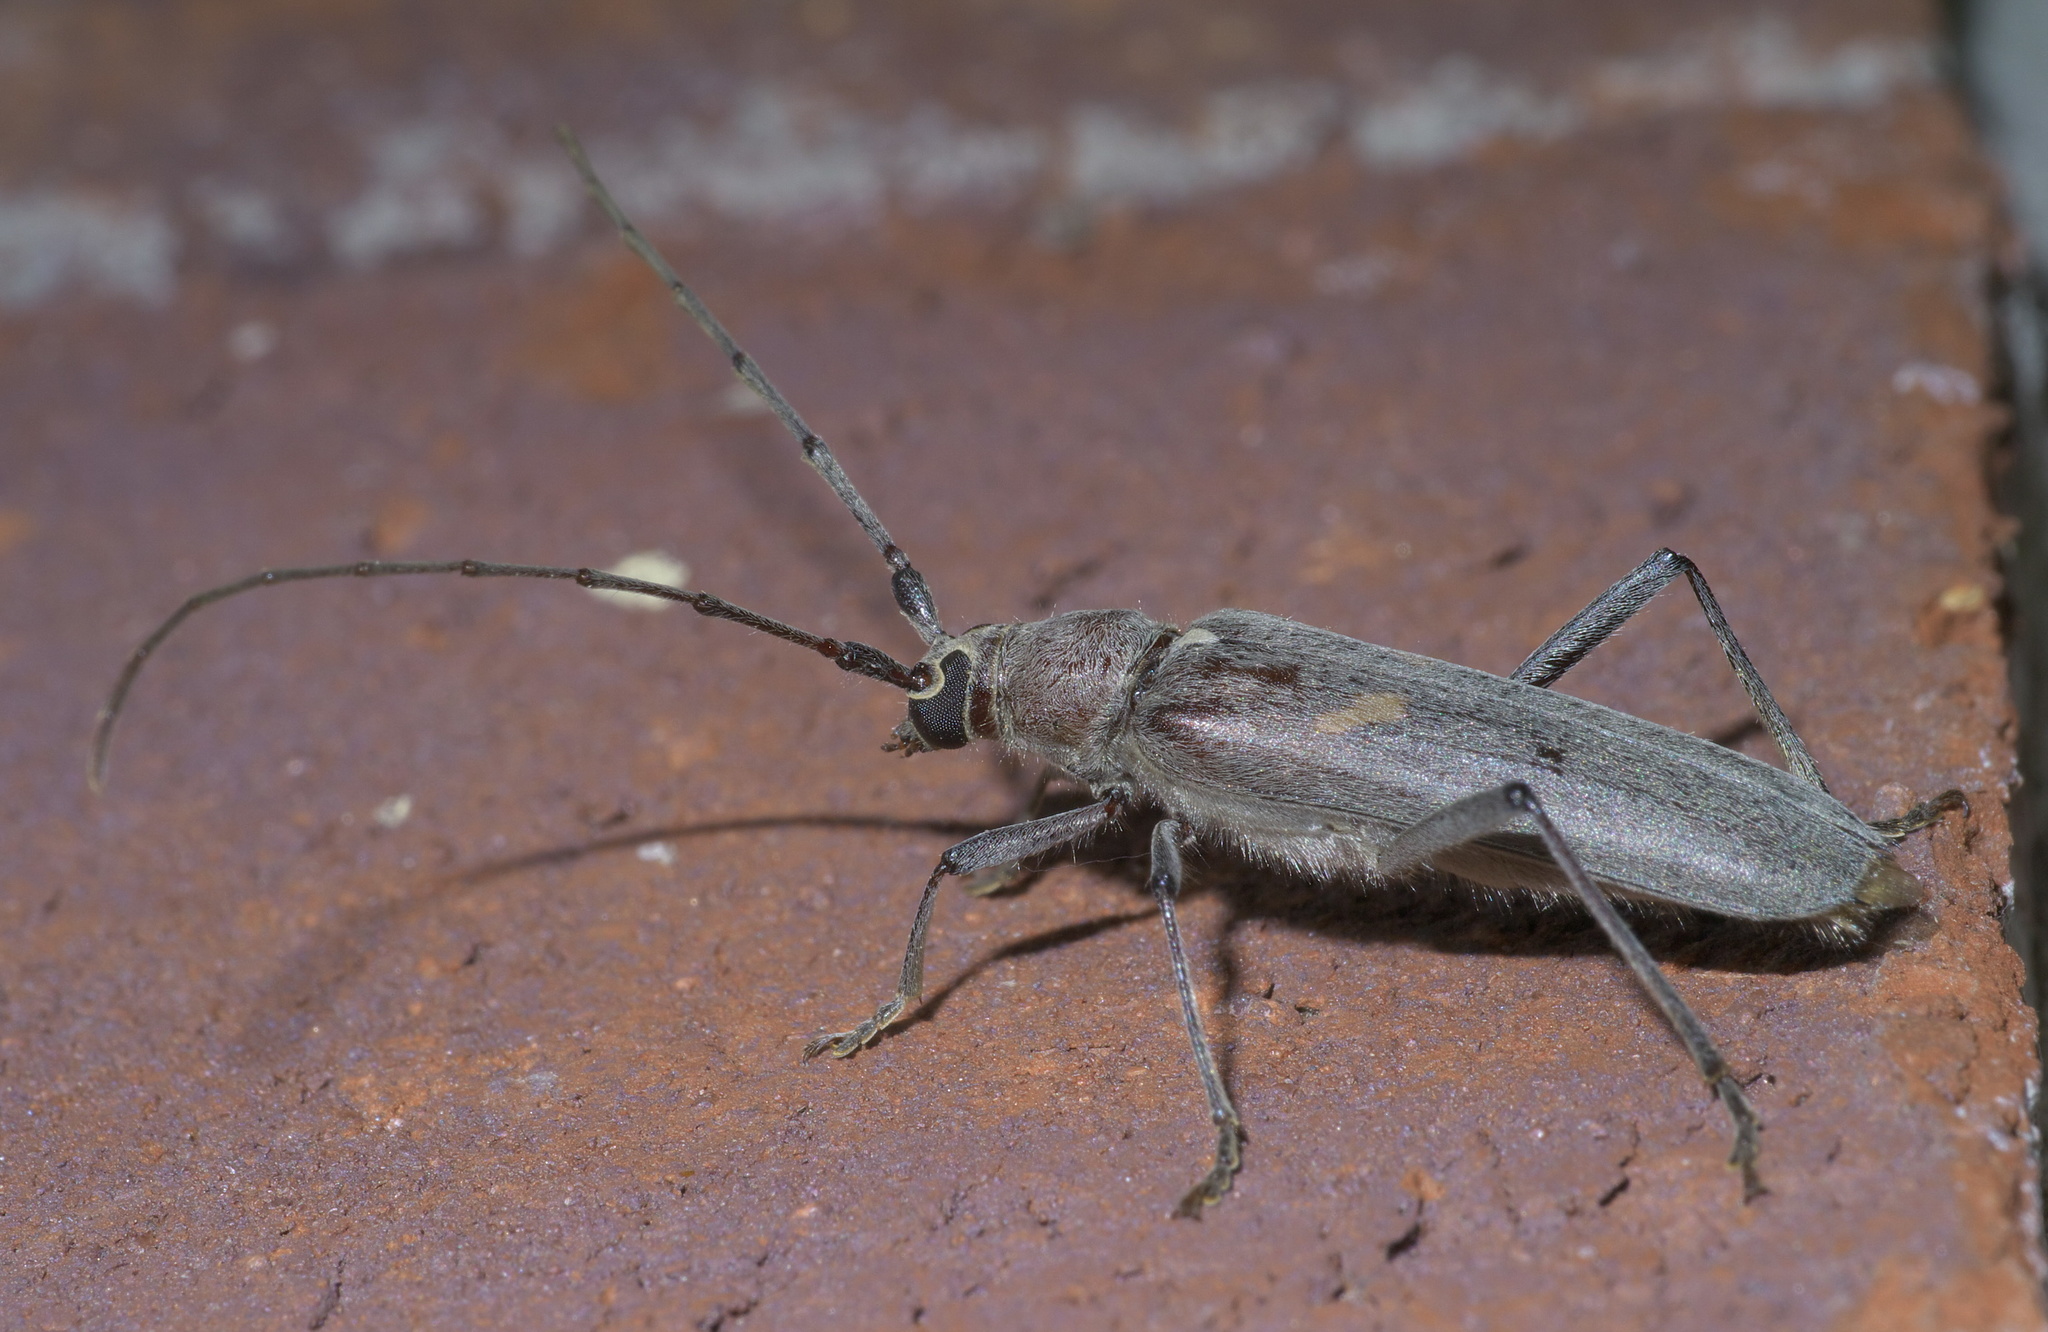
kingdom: Animalia
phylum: Arthropoda
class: Insecta
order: Coleoptera
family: Cerambycidae
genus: Knulliana
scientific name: Knulliana cincta
